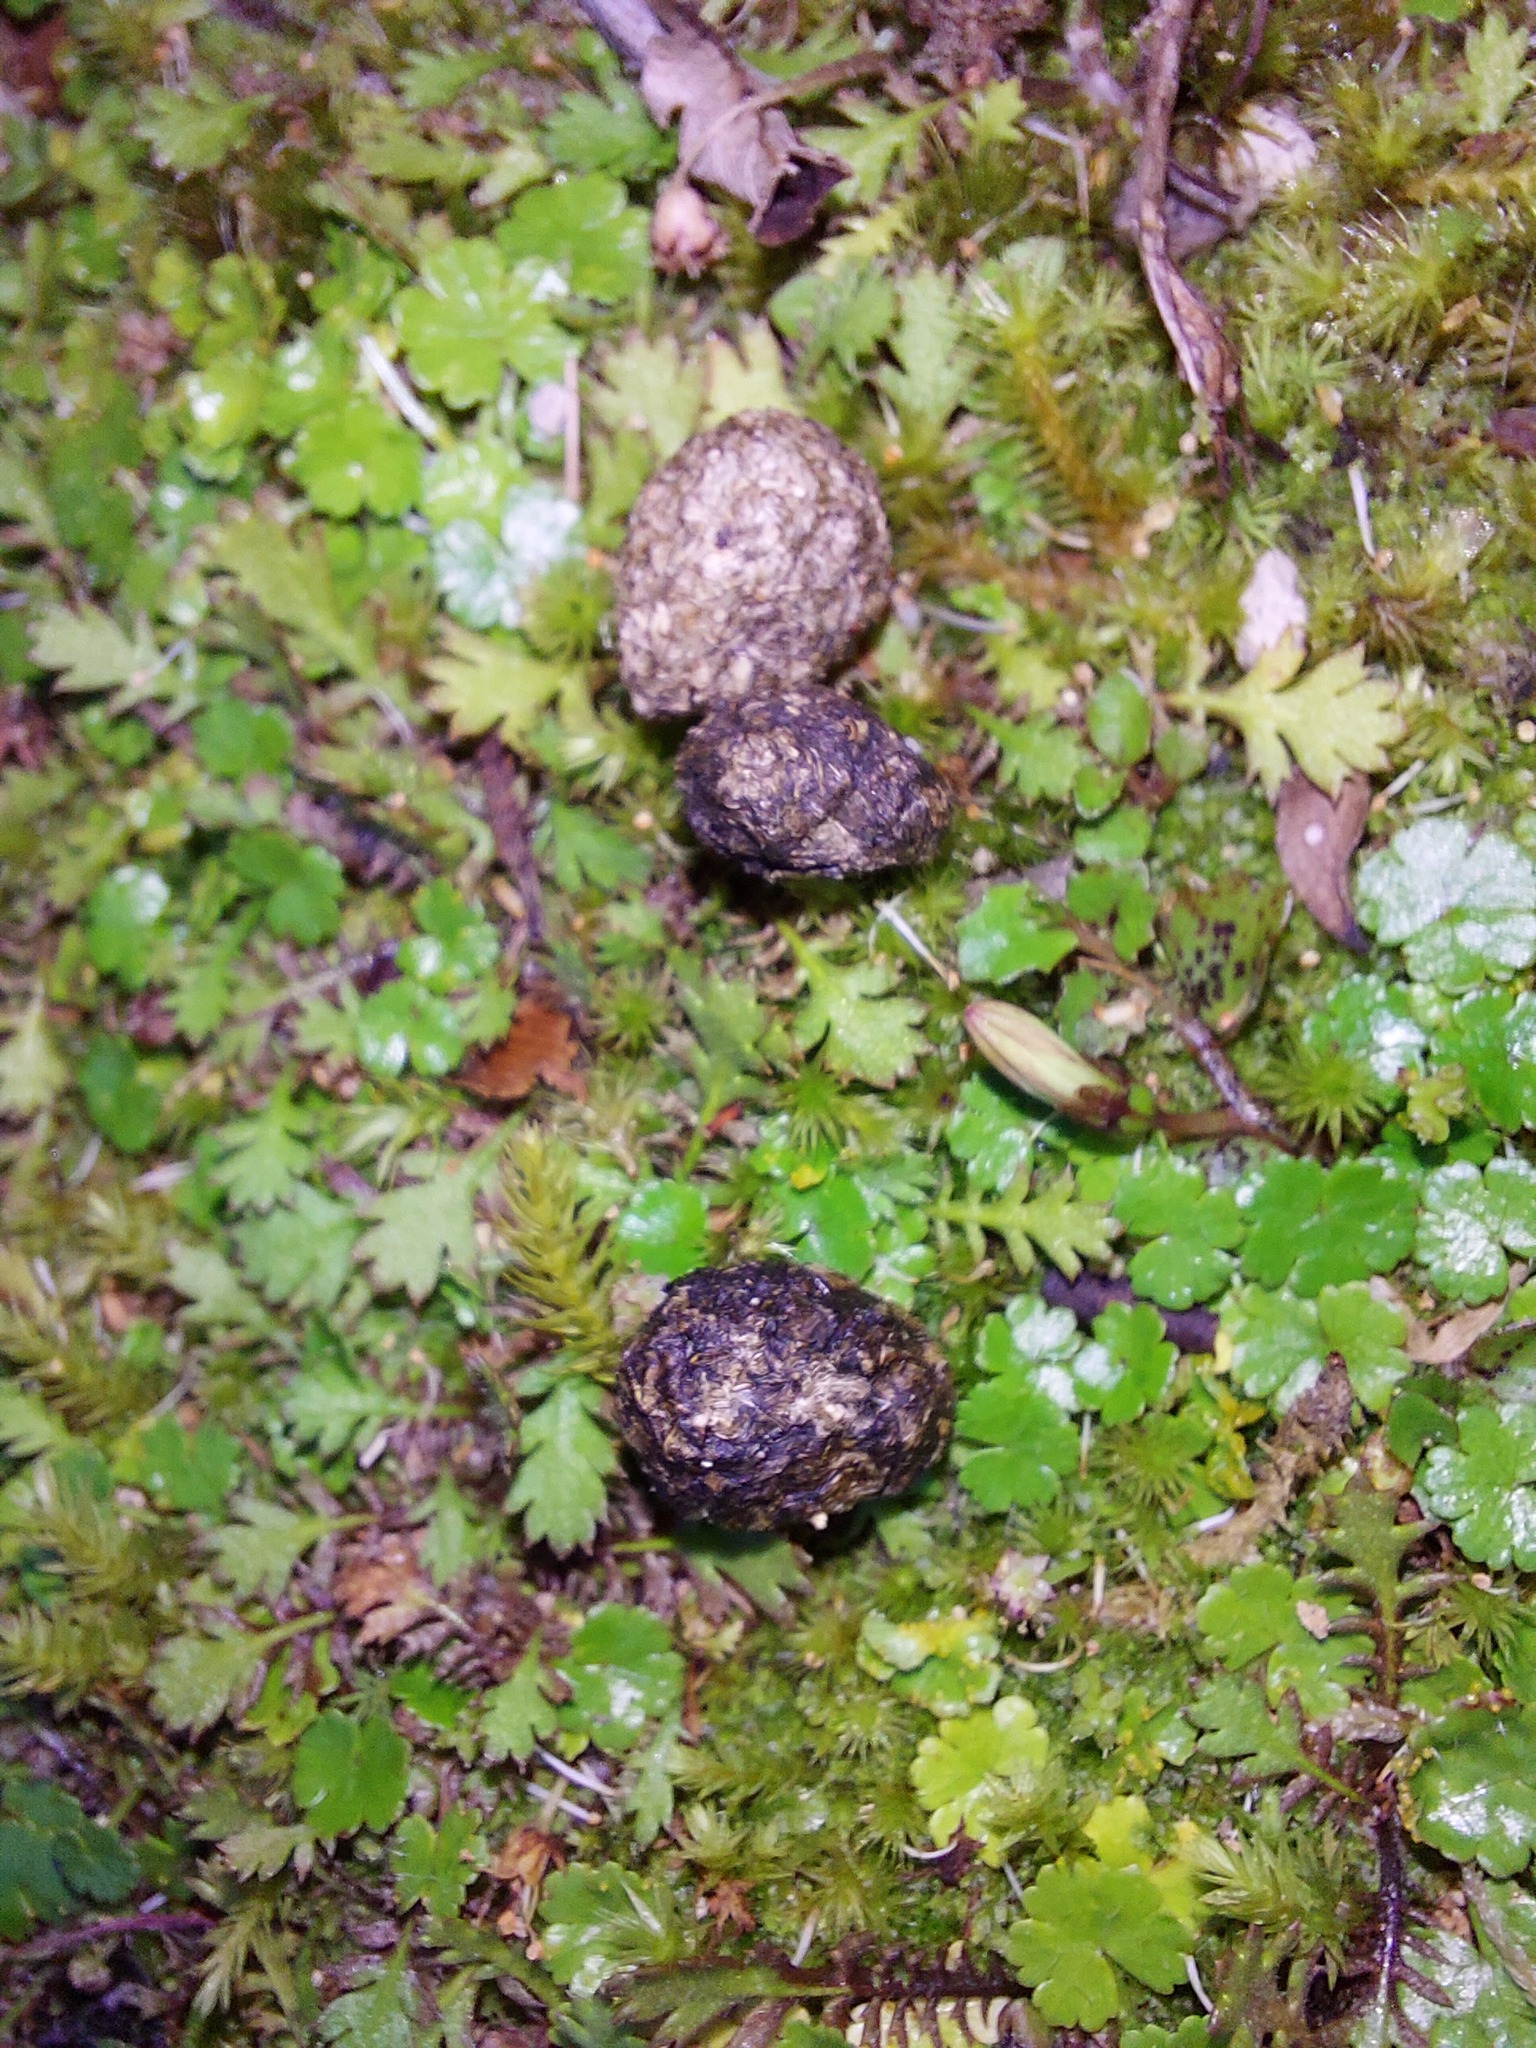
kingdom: Animalia
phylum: Chordata
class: Mammalia
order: Lagomorpha
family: Leporidae
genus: Oryctolagus
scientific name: Oryctolagus cuniculus
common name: European rabbit
